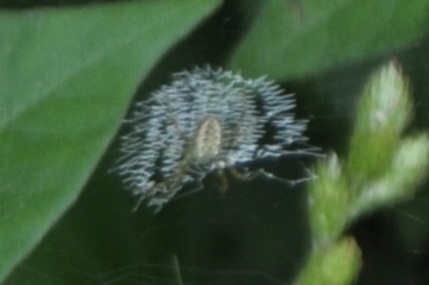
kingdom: Animalia
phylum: Arthropoda
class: Arachnida
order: Araneae
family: Araneidae
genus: Argiope
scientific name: Argiope aurantia
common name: Orb weavers
